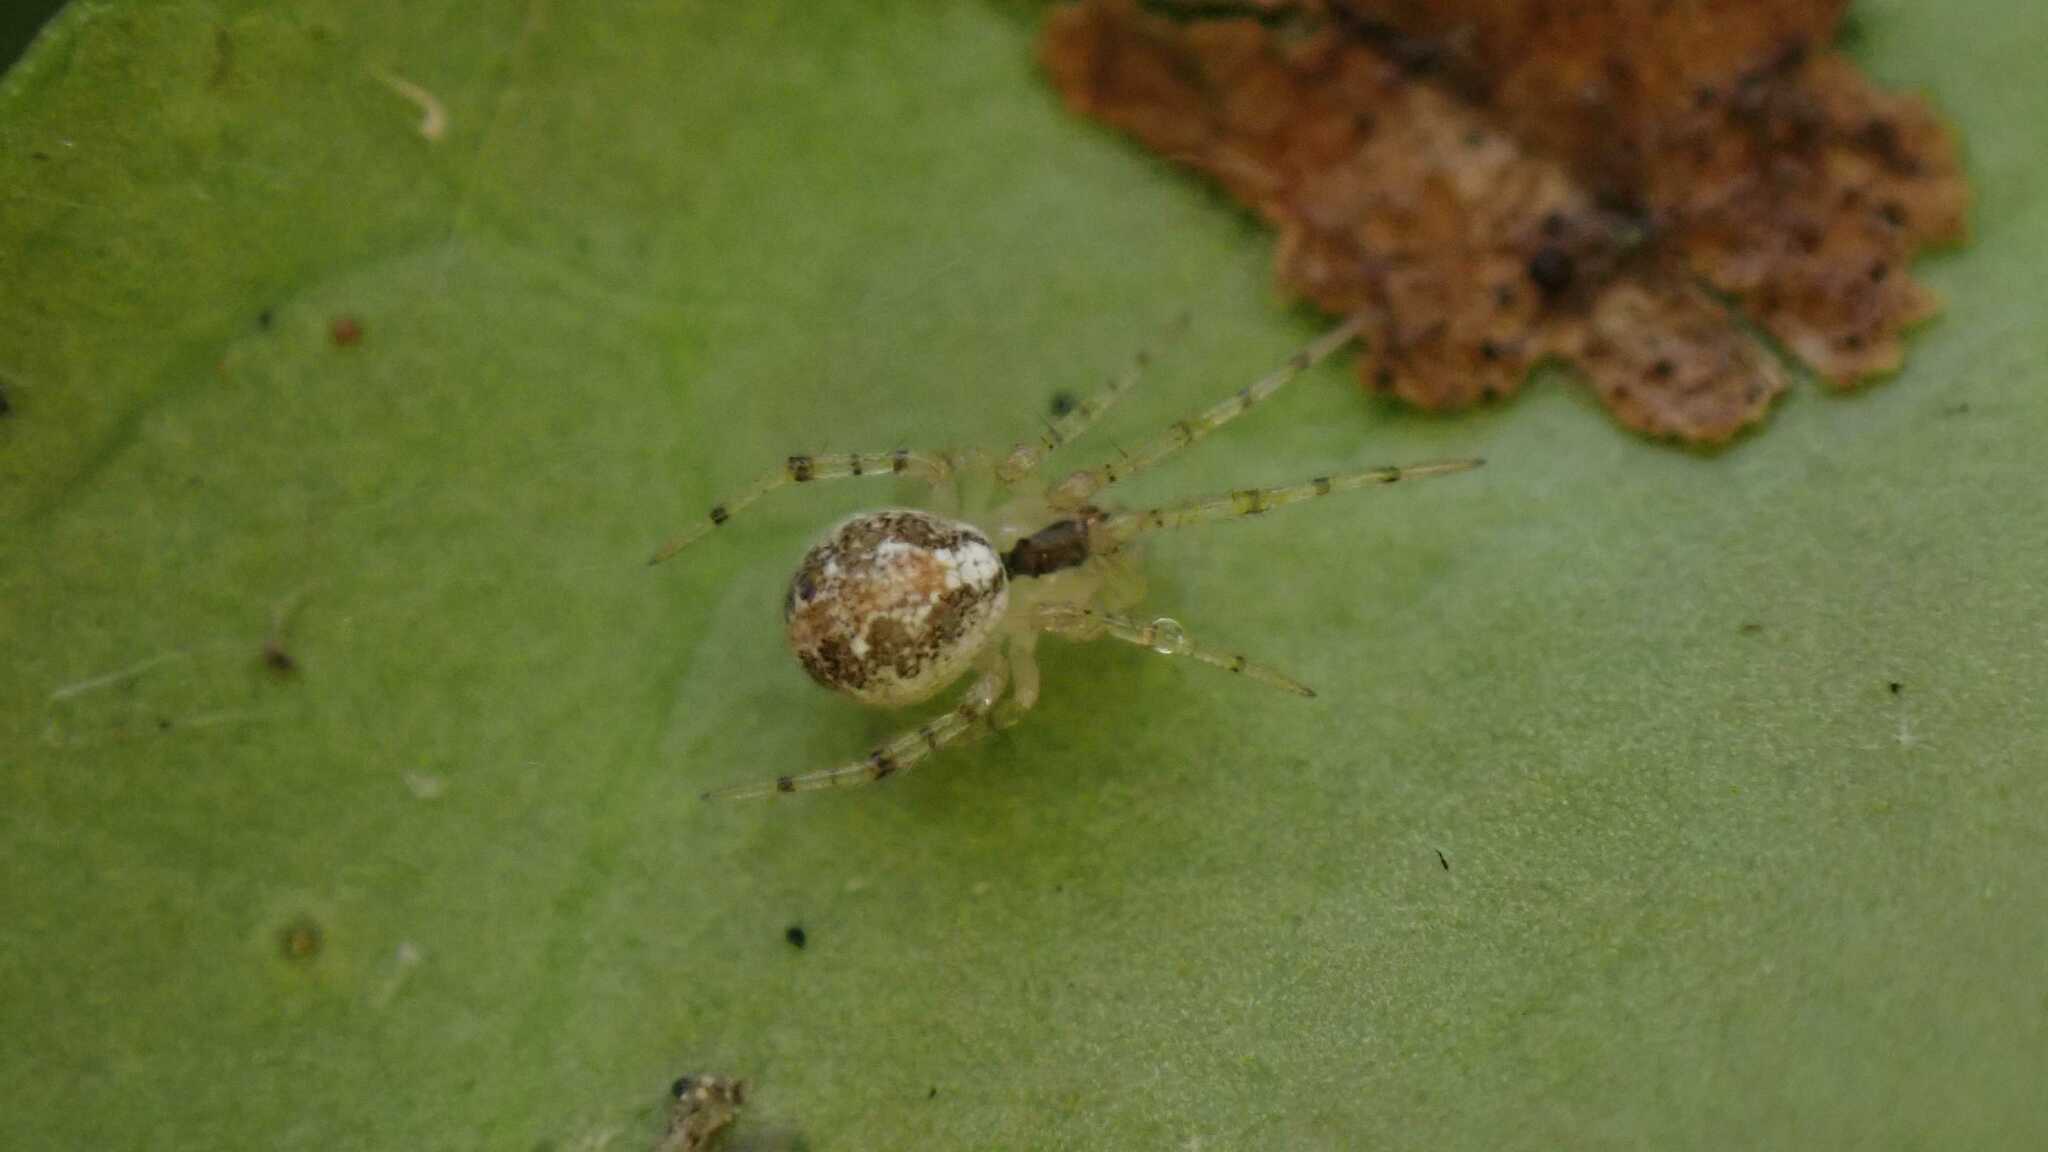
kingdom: Animalia
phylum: Arthropoda
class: Arachnida
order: Araneae
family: Theridiidae
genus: Theridion
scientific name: Theridion varians
